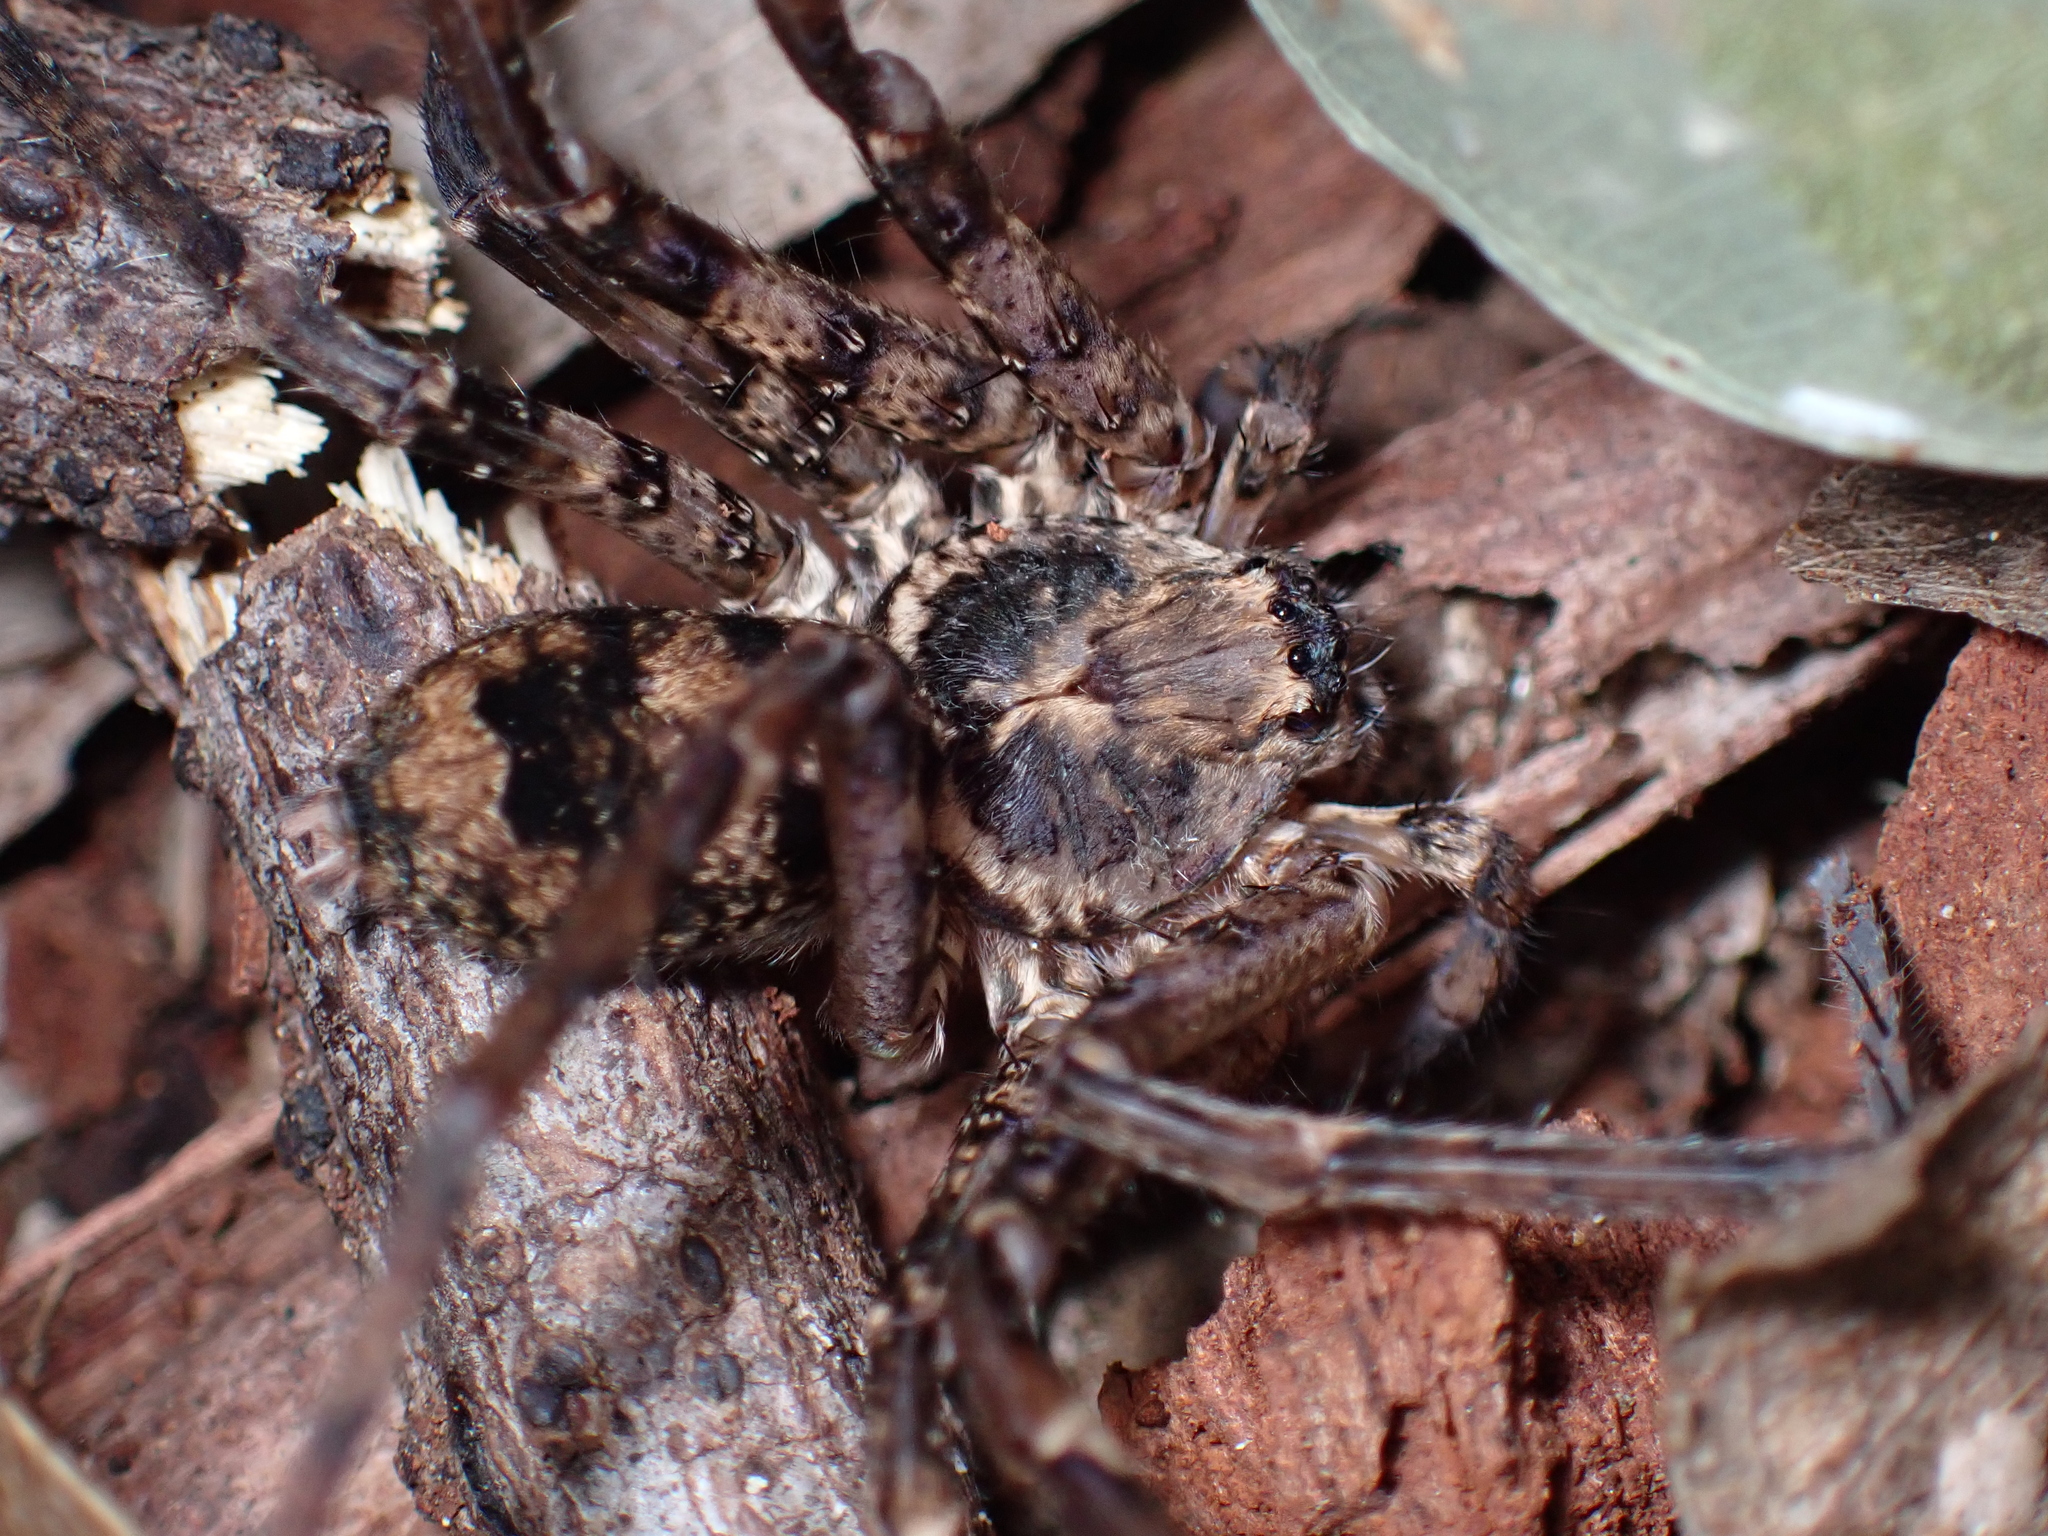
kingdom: Animalia
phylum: Arthropoda
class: Arachnida
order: Araneae
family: Sparassidae
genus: Heteropoda
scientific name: Heteropoda procera
